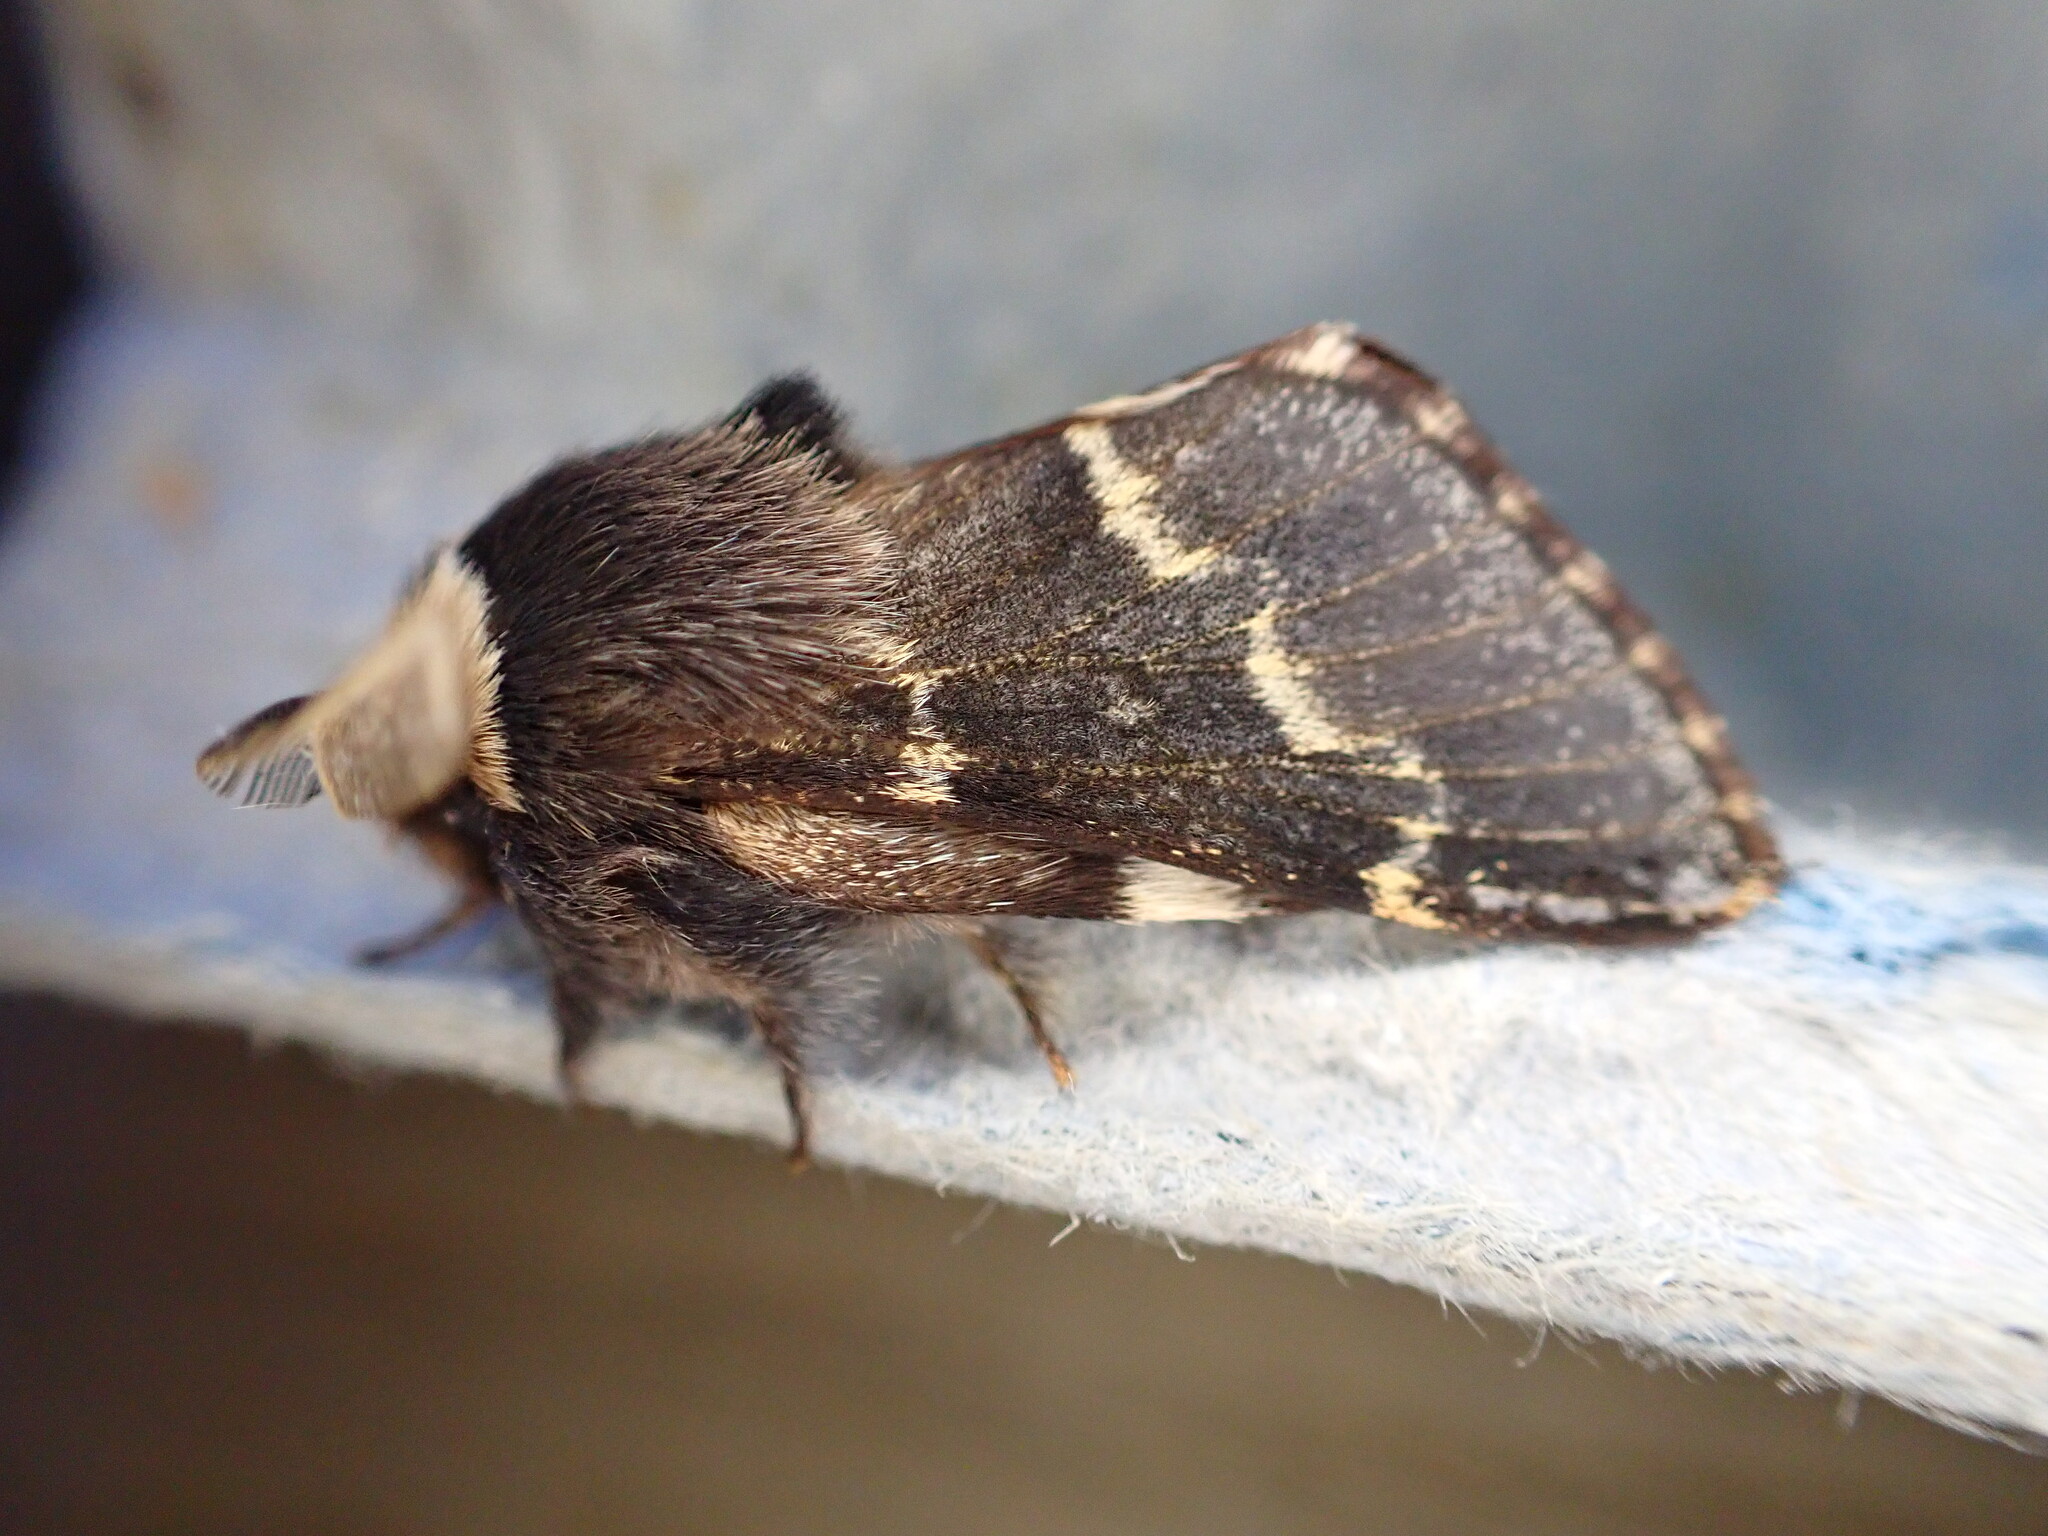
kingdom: Animalia
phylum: Arthropoda
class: Insecta
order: Lepidoptera
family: Lasiocampidae
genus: Poecilocampa
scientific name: Poecilocampa populi
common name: December moth
